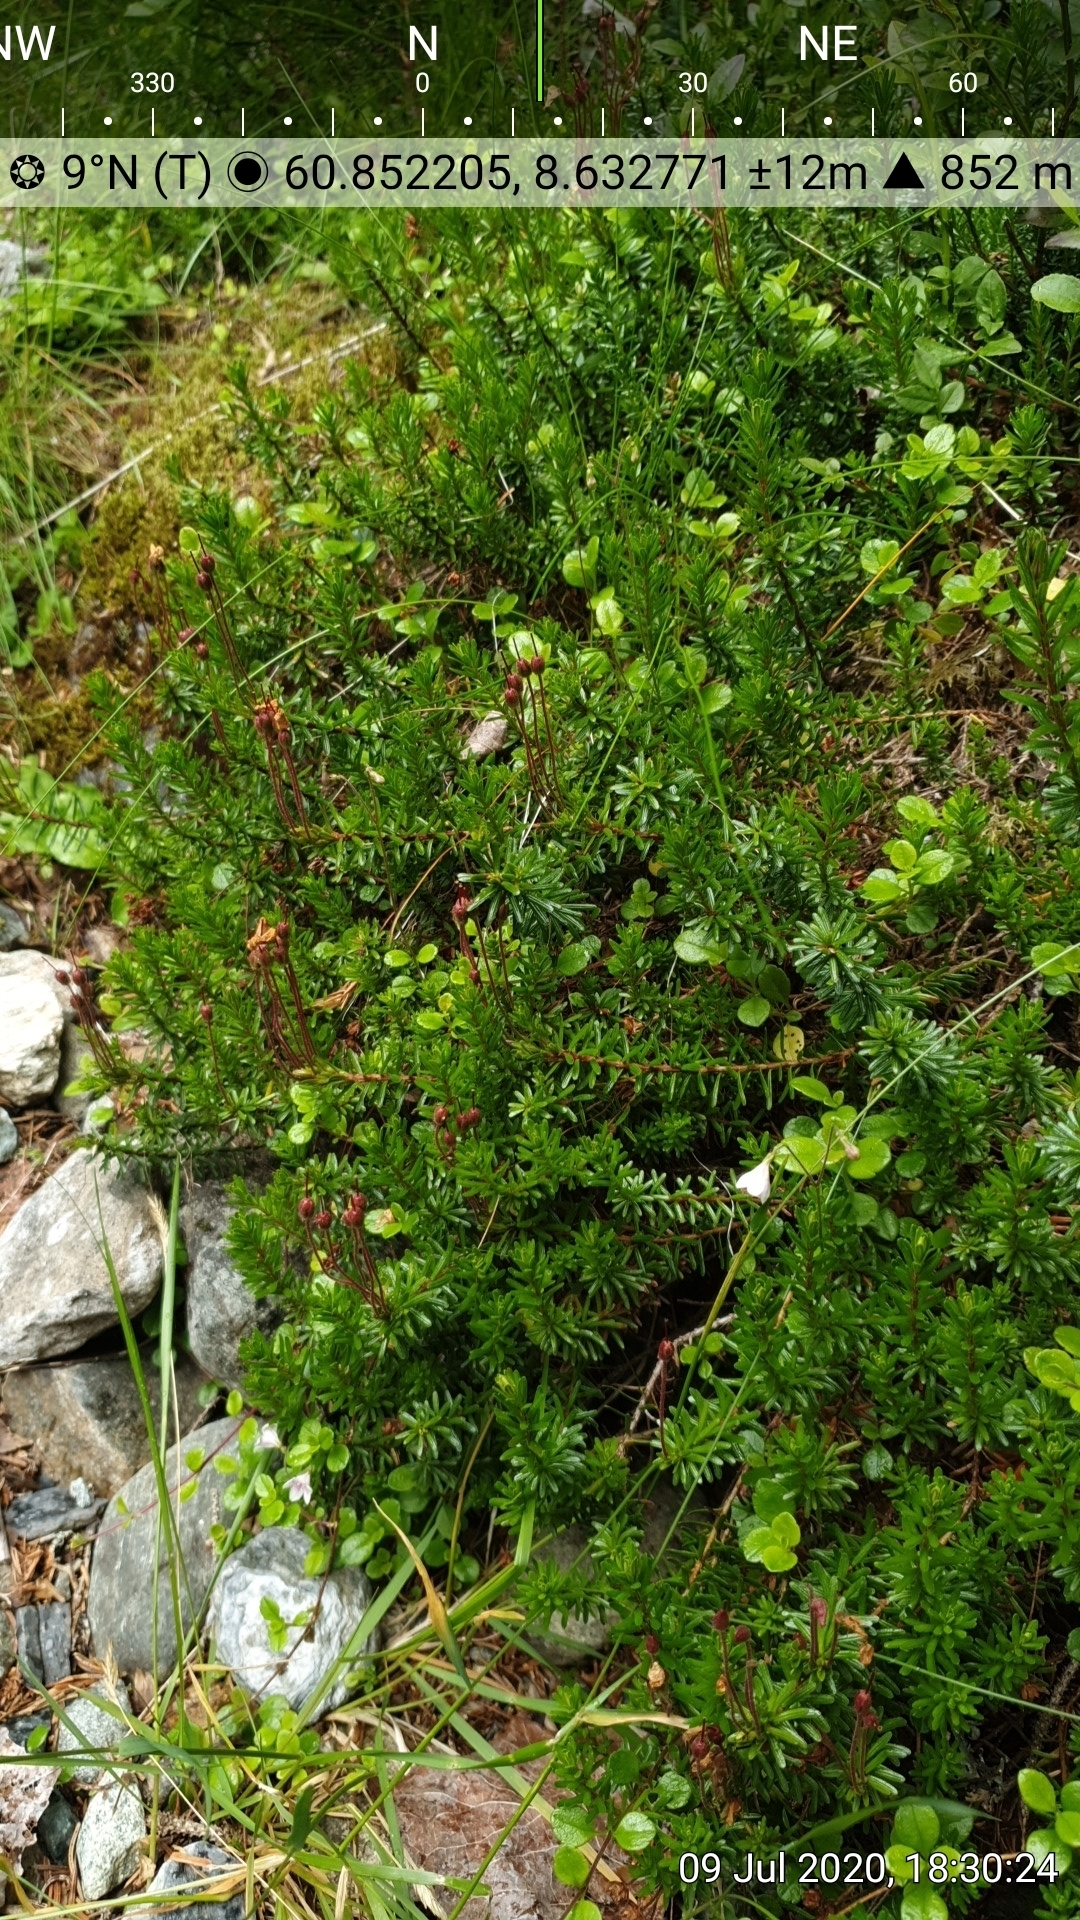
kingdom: Plantae
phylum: Tracheophyta
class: Magnoliopsida
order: Ericales
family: Ericaceae
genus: Phyllodoce
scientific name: Phyllodoce caerulea
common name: Blue heath
